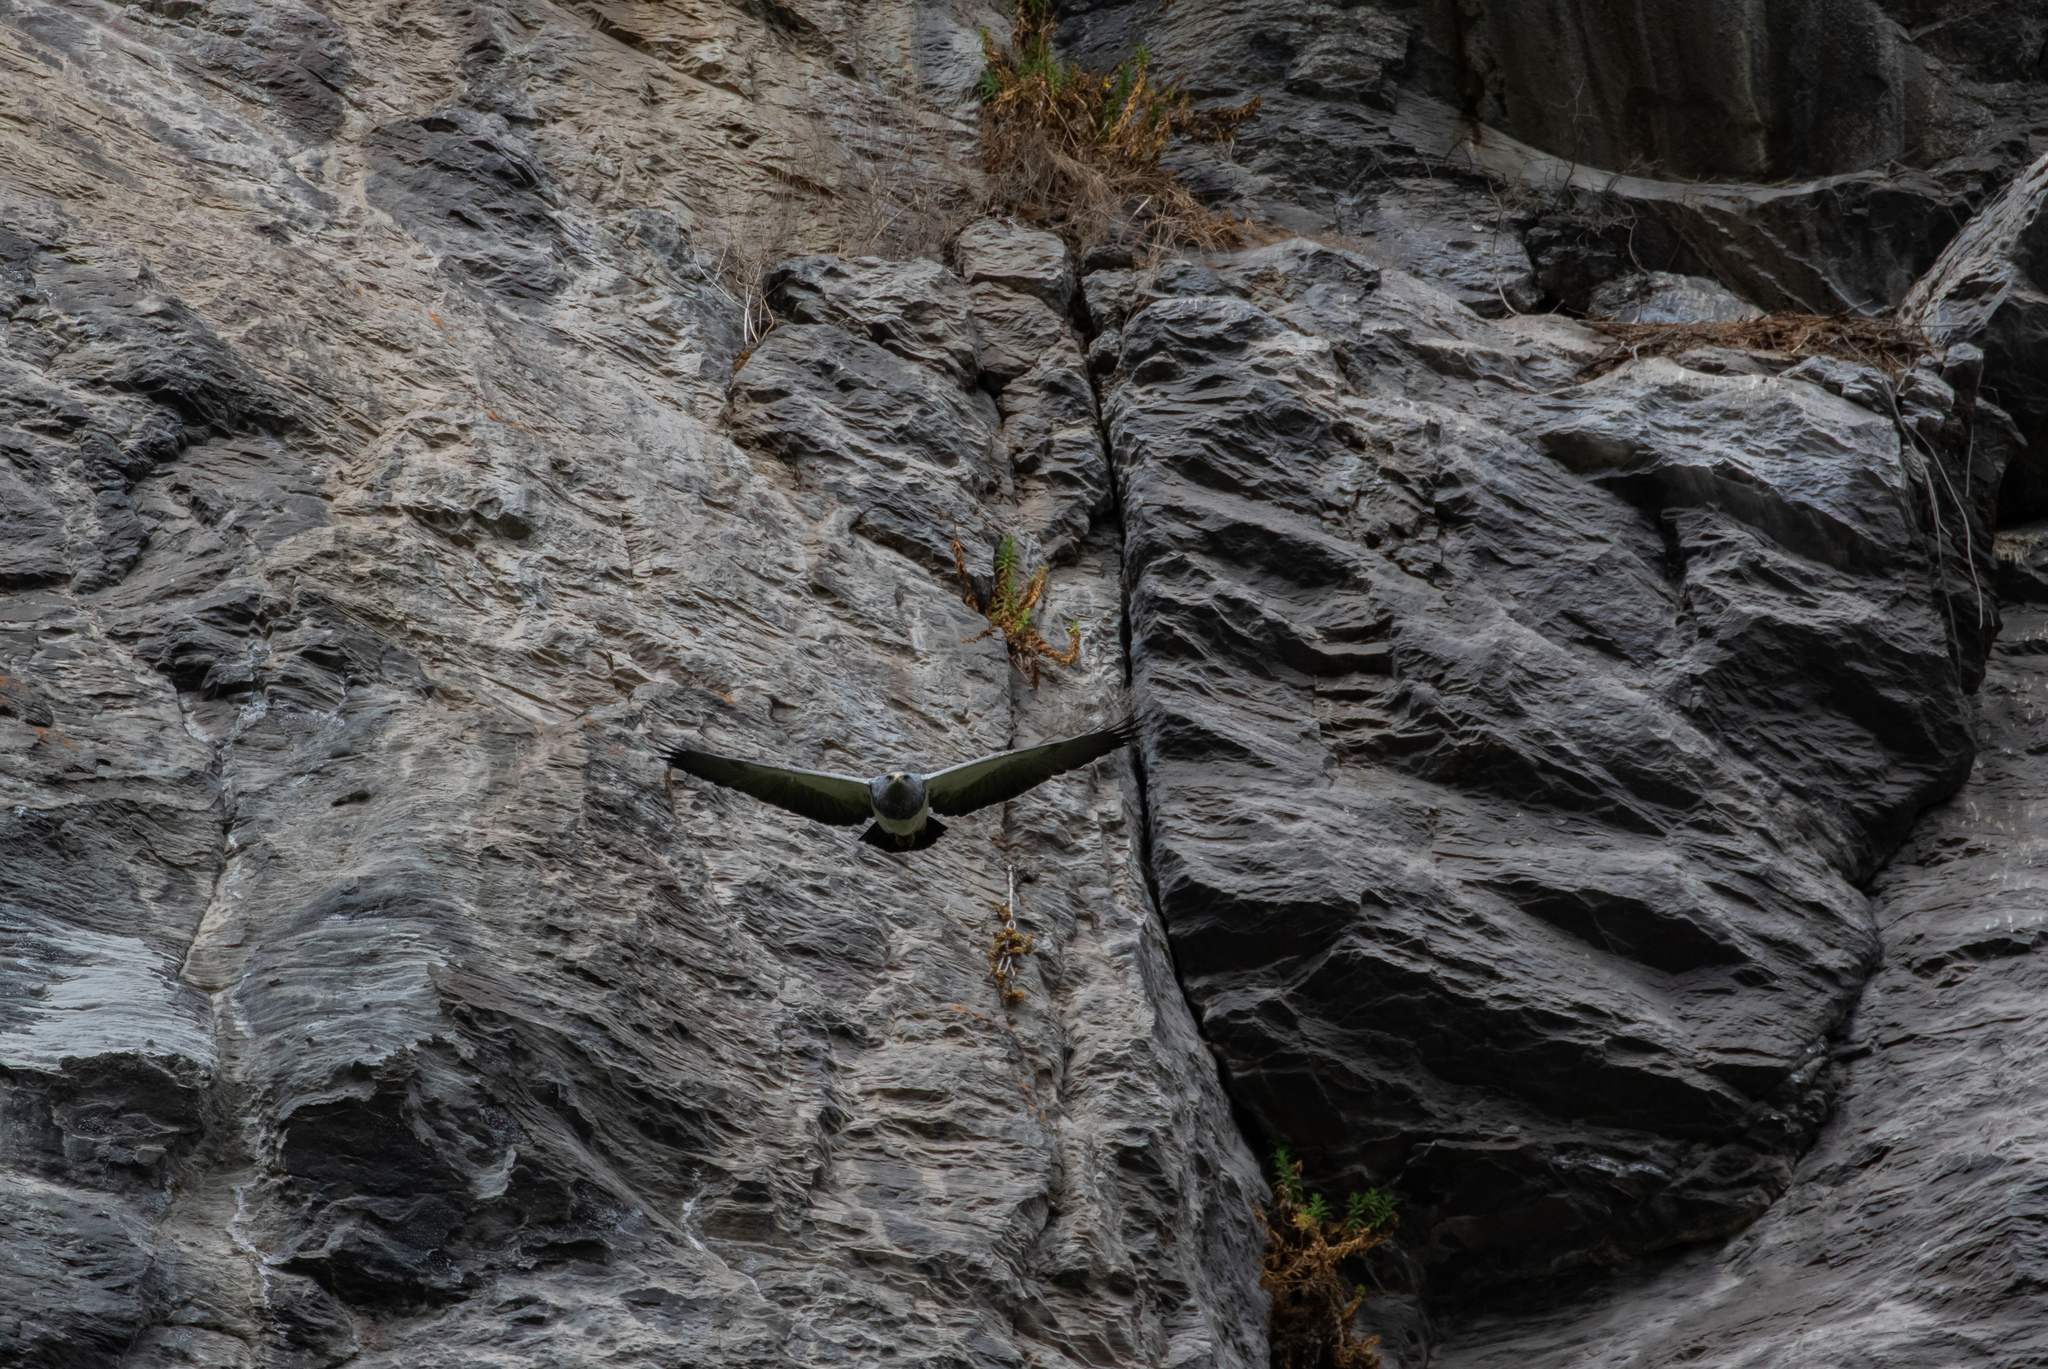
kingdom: Animalia
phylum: Chordata
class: Aves
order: Accipitriformes
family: Accipitridae
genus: Geranoaetus
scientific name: Geranoaetus melanoleucus
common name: Black-chested buzzard-eagle
